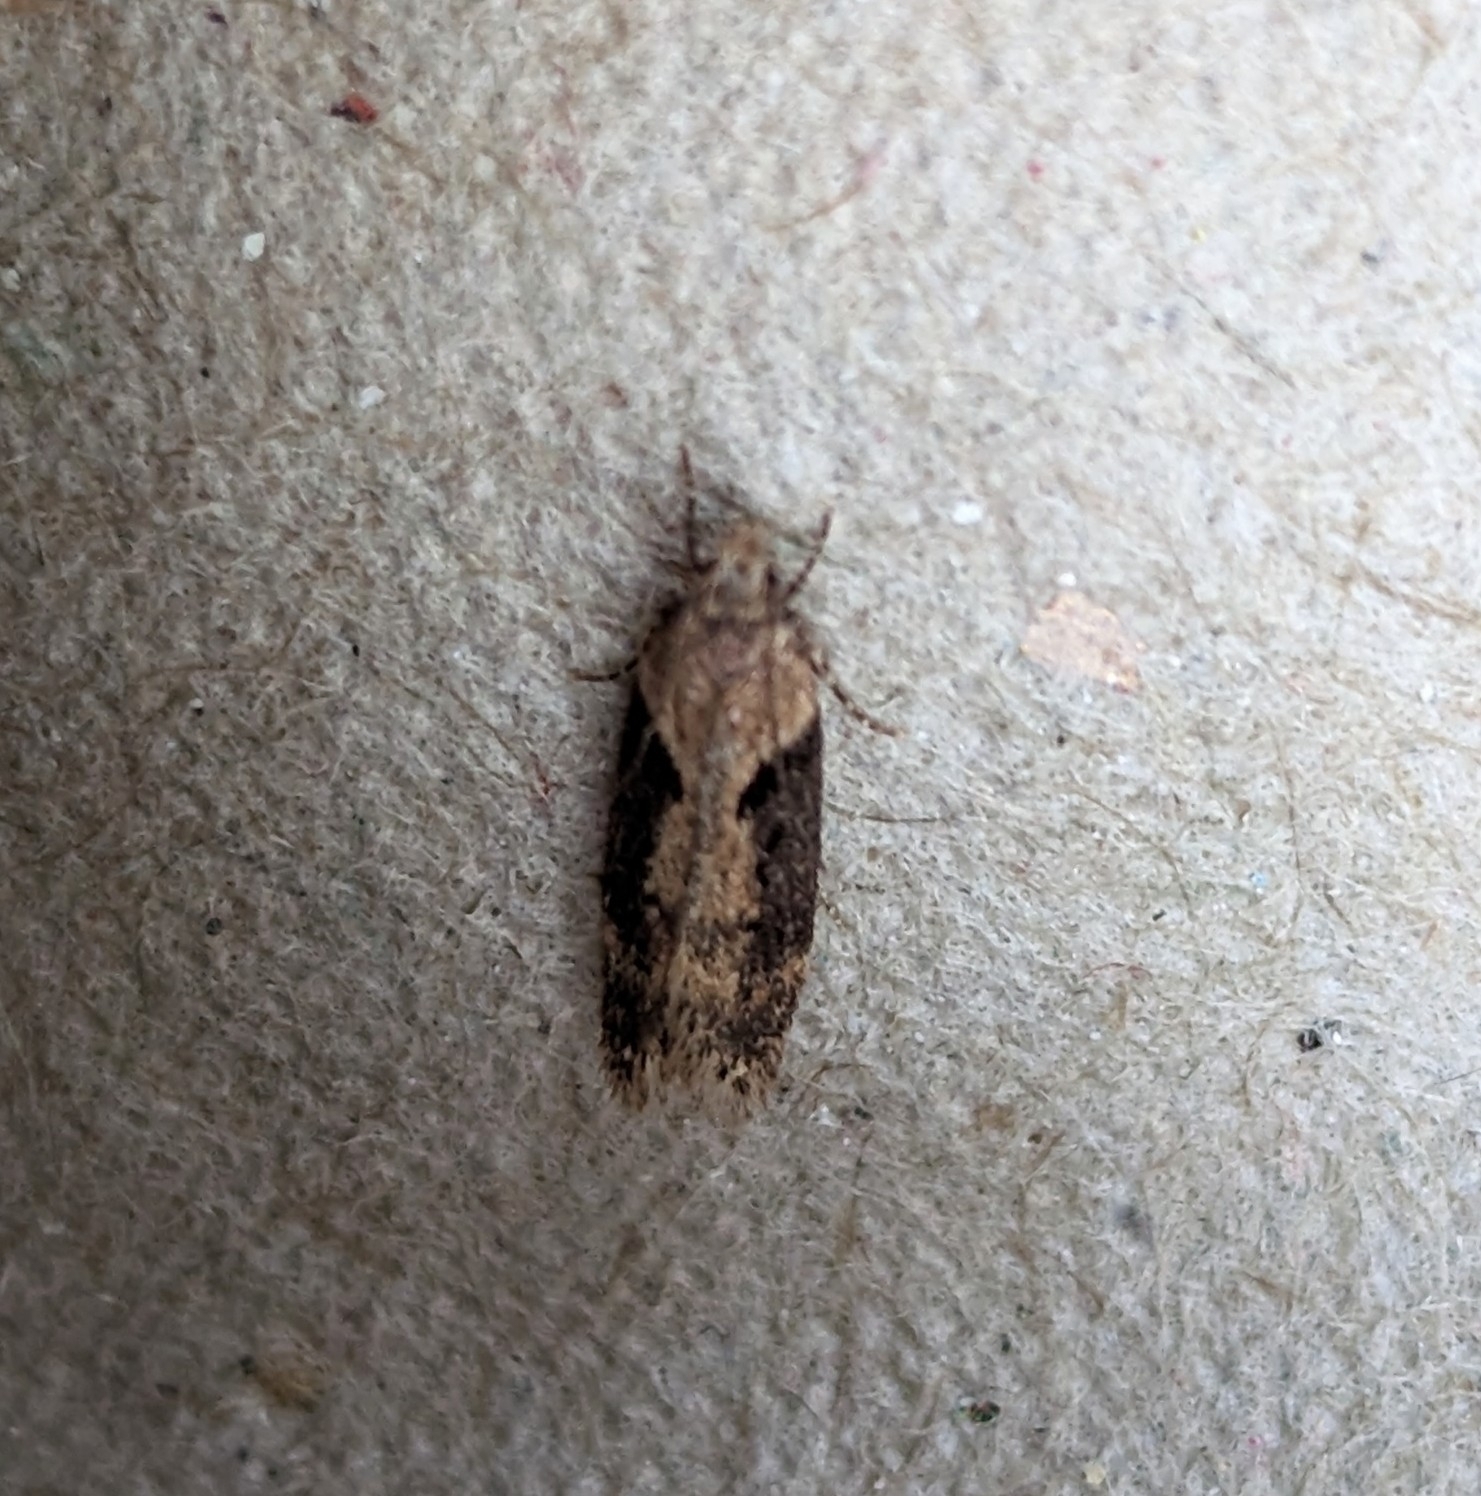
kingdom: Animalia
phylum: Arthropoda
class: Insecta
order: Lepidoptera
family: Gelechiidae
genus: Chionodes
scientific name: Chionodes mediofuscella
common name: Black-smudged chionodes moth
